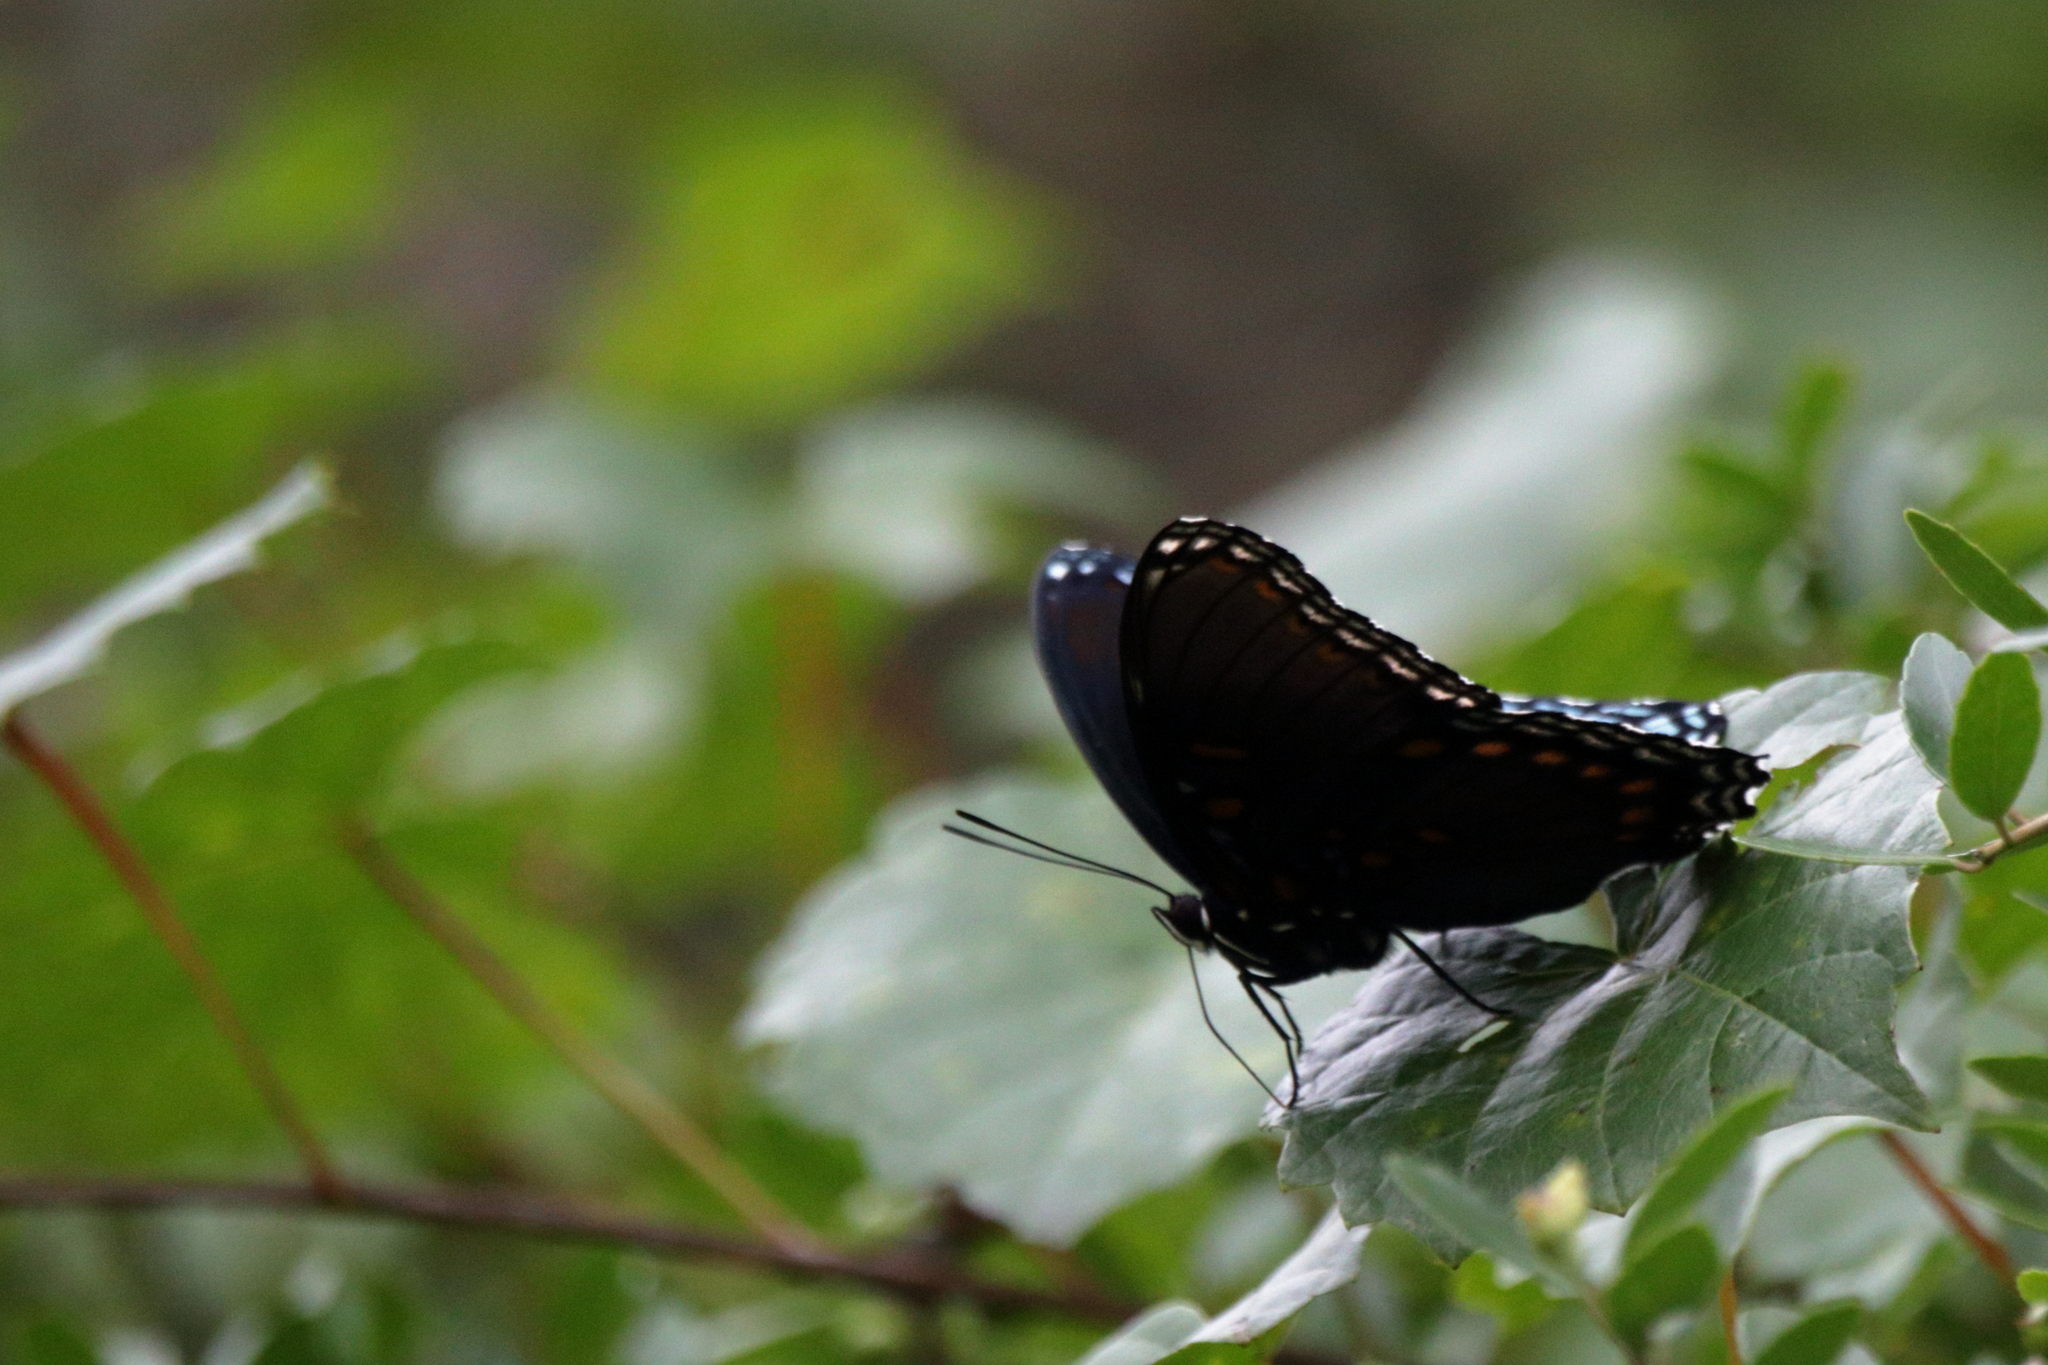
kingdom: Animalia
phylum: Arthropoda
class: Insecta
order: Lepidoptera
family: Nymphalidae
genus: Limenitis
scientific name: Limenitis arthemis
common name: Red-spotted admiral
